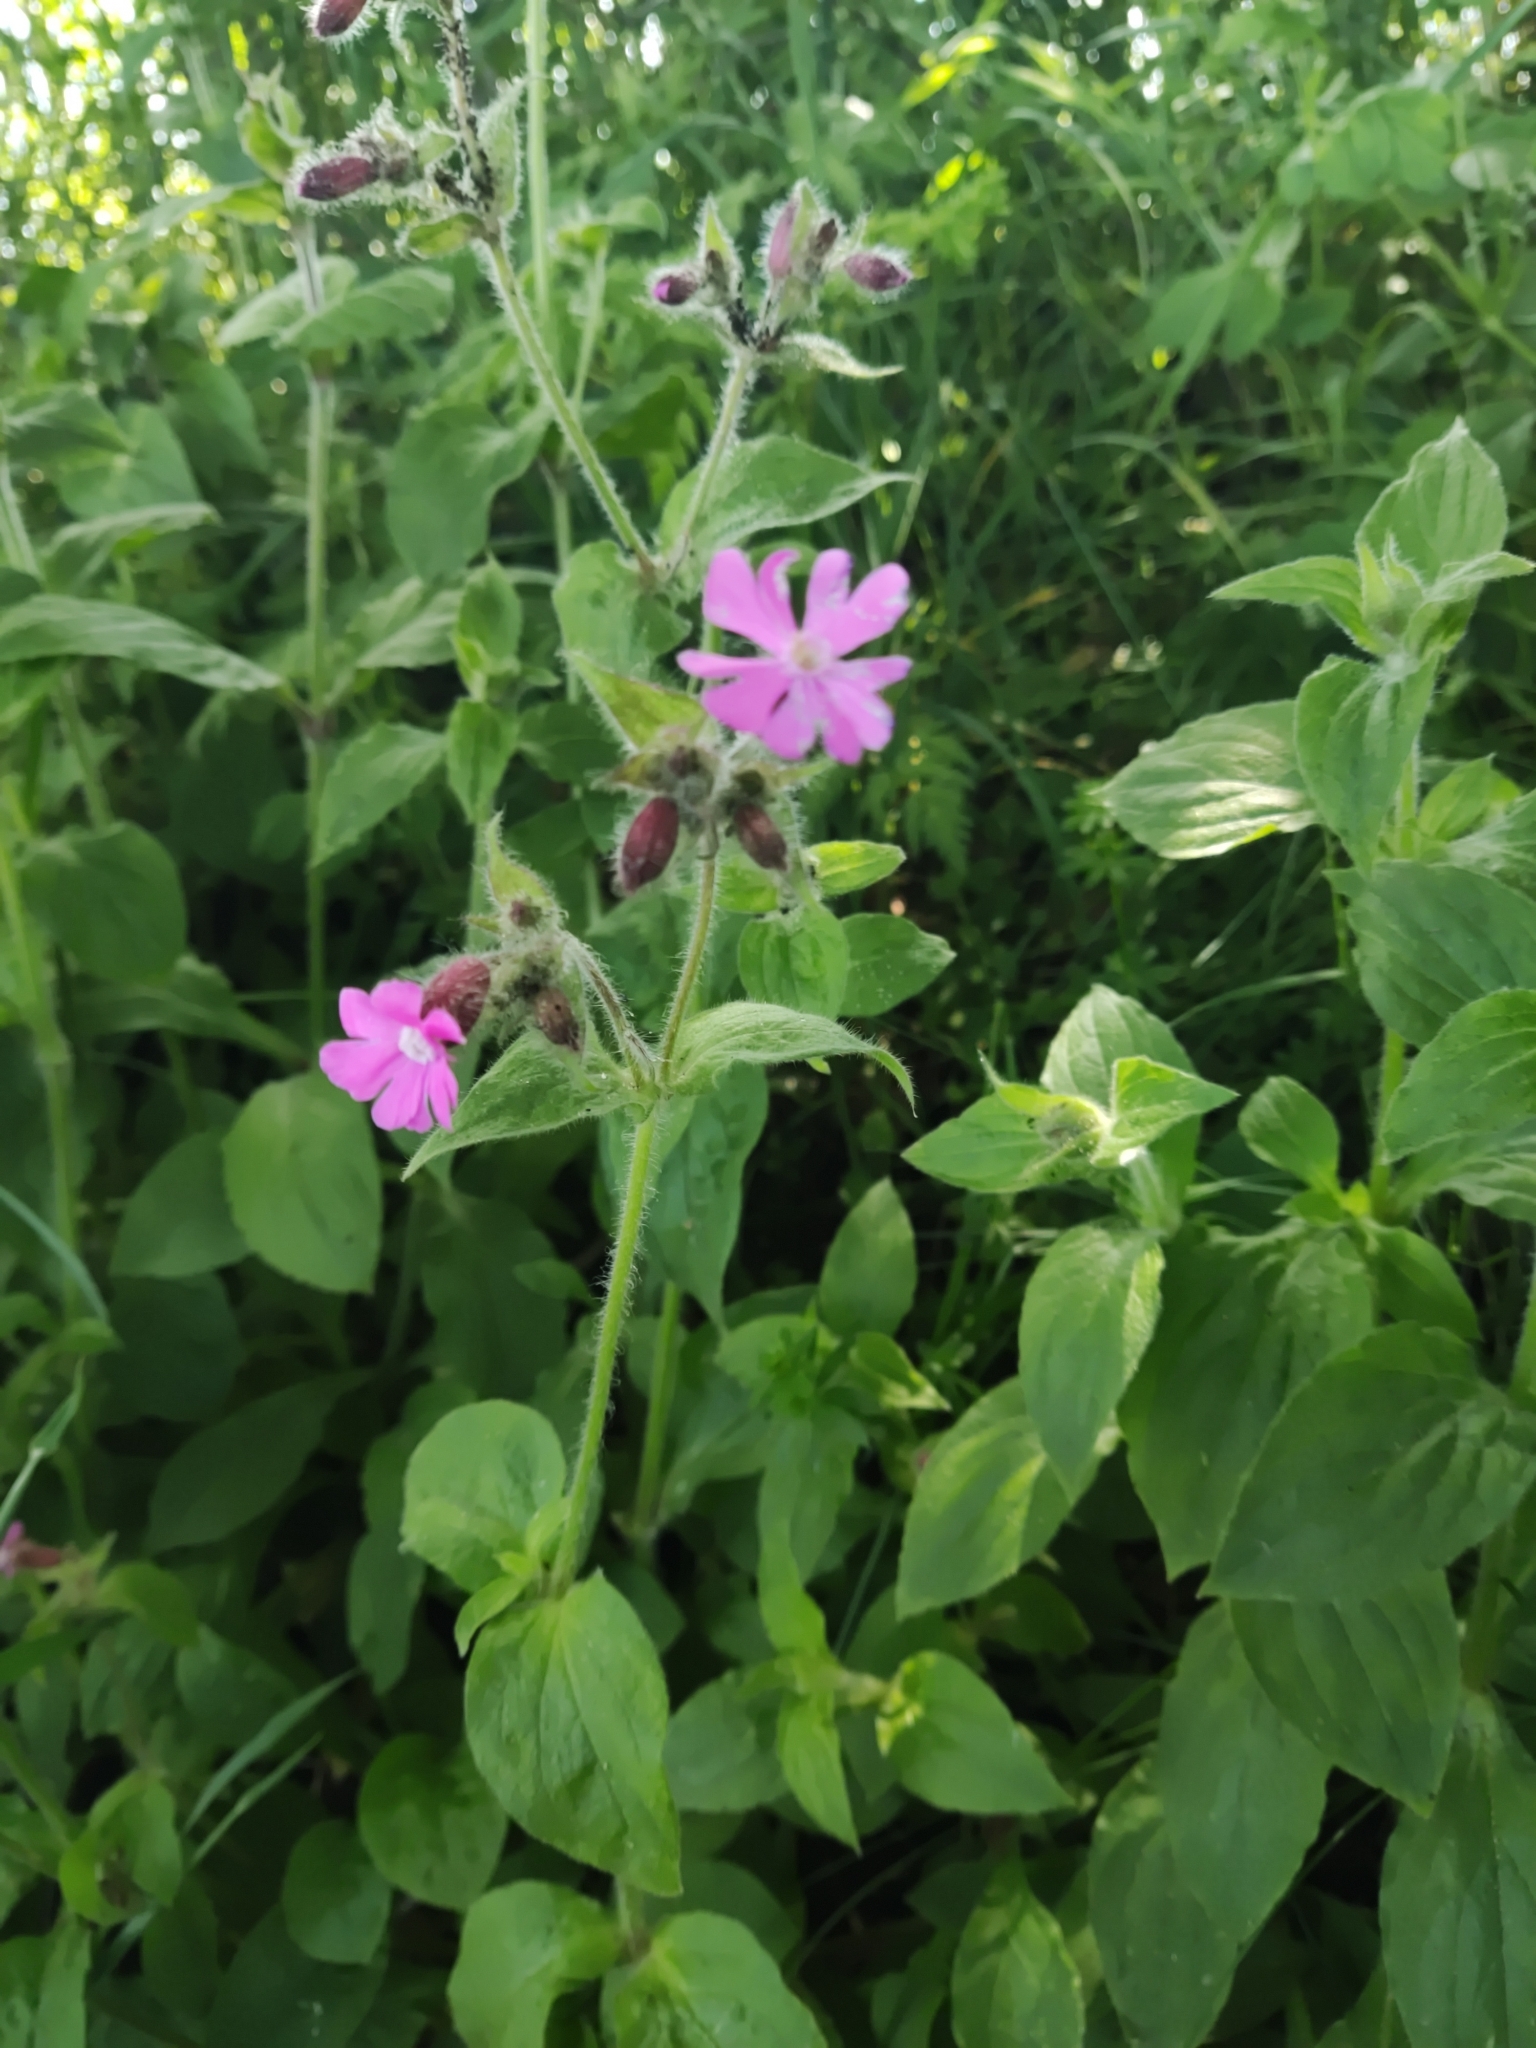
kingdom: Plantae
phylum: Tracheophyta
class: Magnoliopsida
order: Caryophyllales
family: Caryophyllaceae
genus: Silene
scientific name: Silene dioica
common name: Red campion
